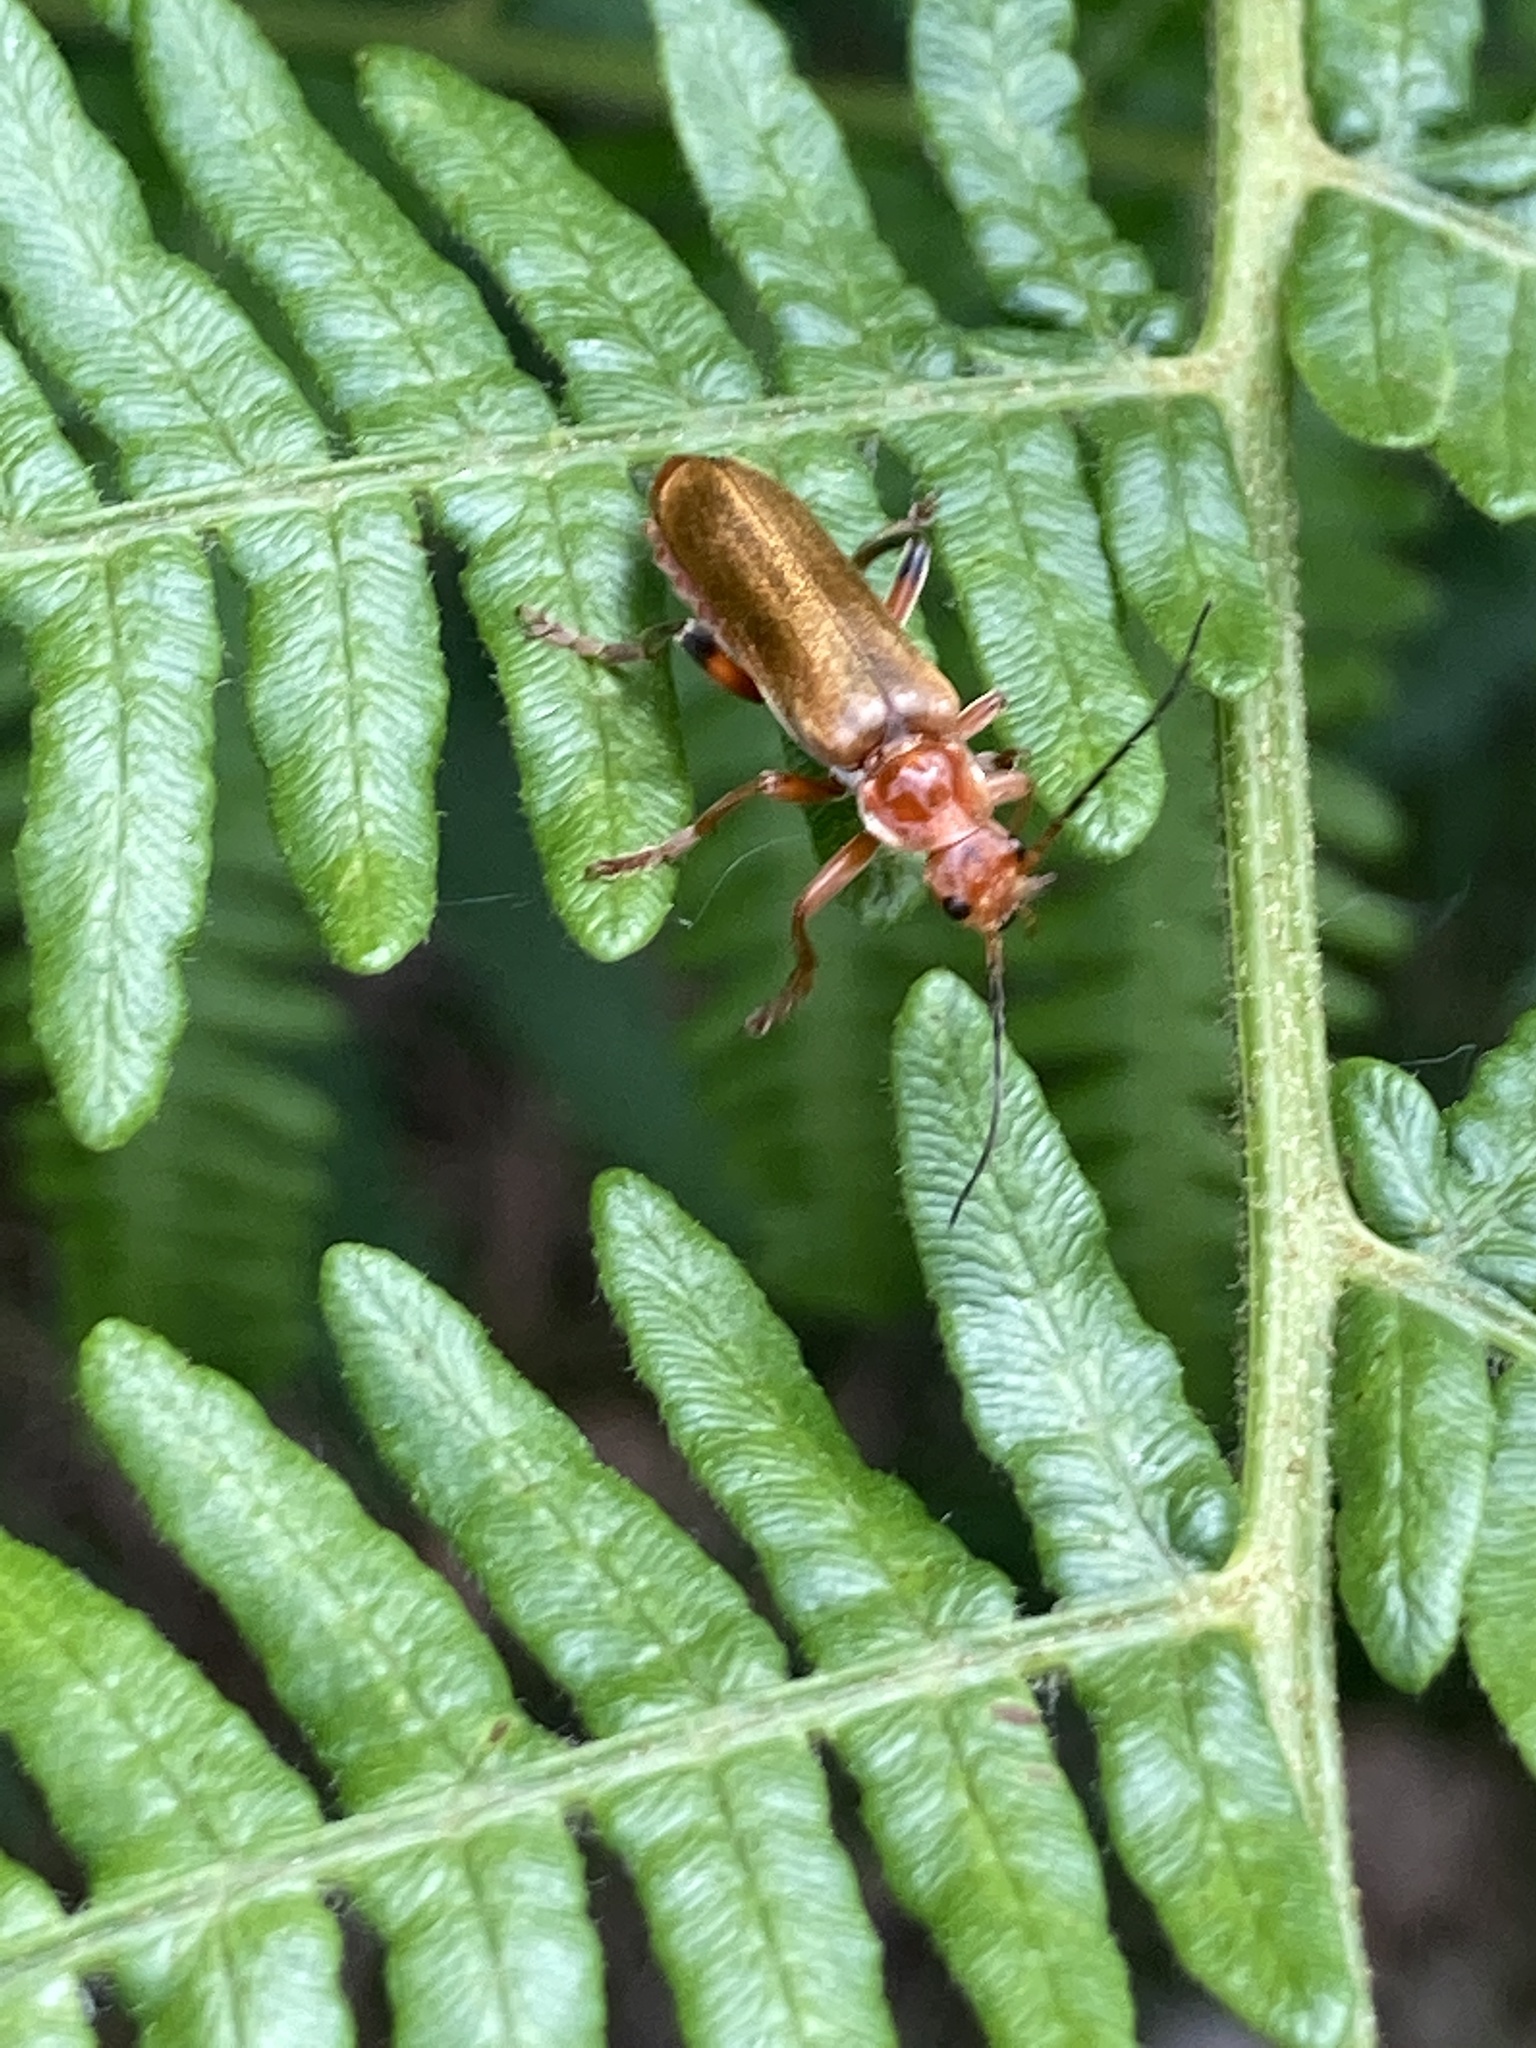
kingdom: Animalia
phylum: Arthropoda
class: Insecta
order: Coleoptera
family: Cantharidae
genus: Cantharis
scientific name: Cantharis livida
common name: Livid soldier beetle
